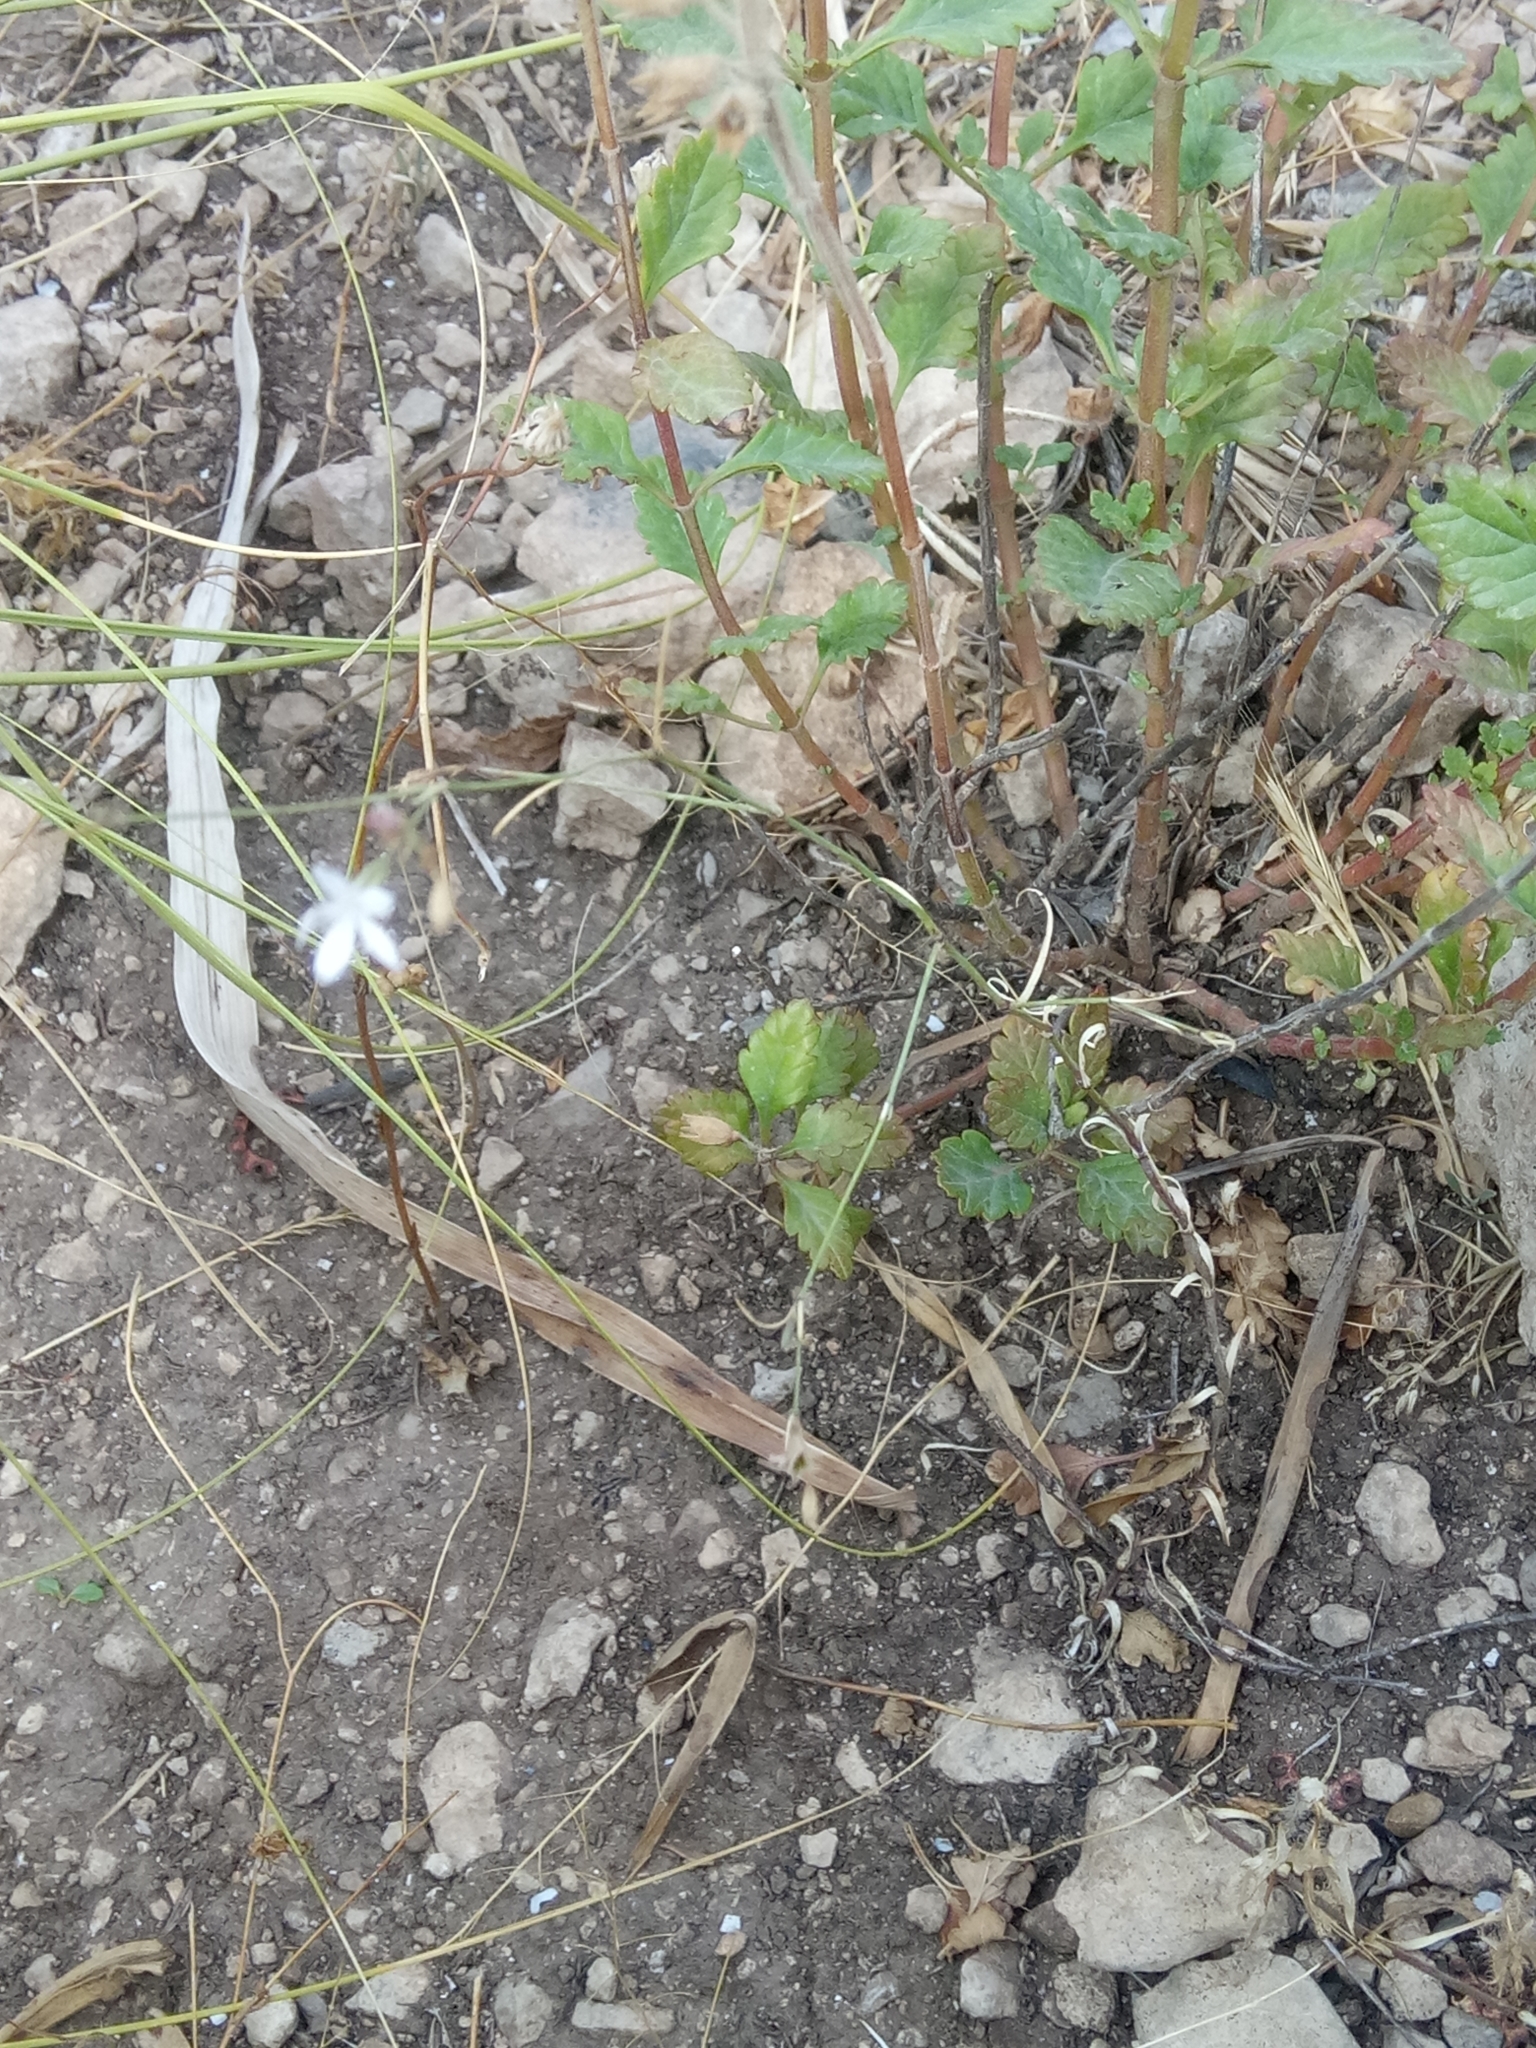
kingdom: Plantae
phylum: Tracheophyta
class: Magnoliopsida
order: Caryophyllales
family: Caryophyllaceae
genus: Dianthus
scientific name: Dianthus illyricus
